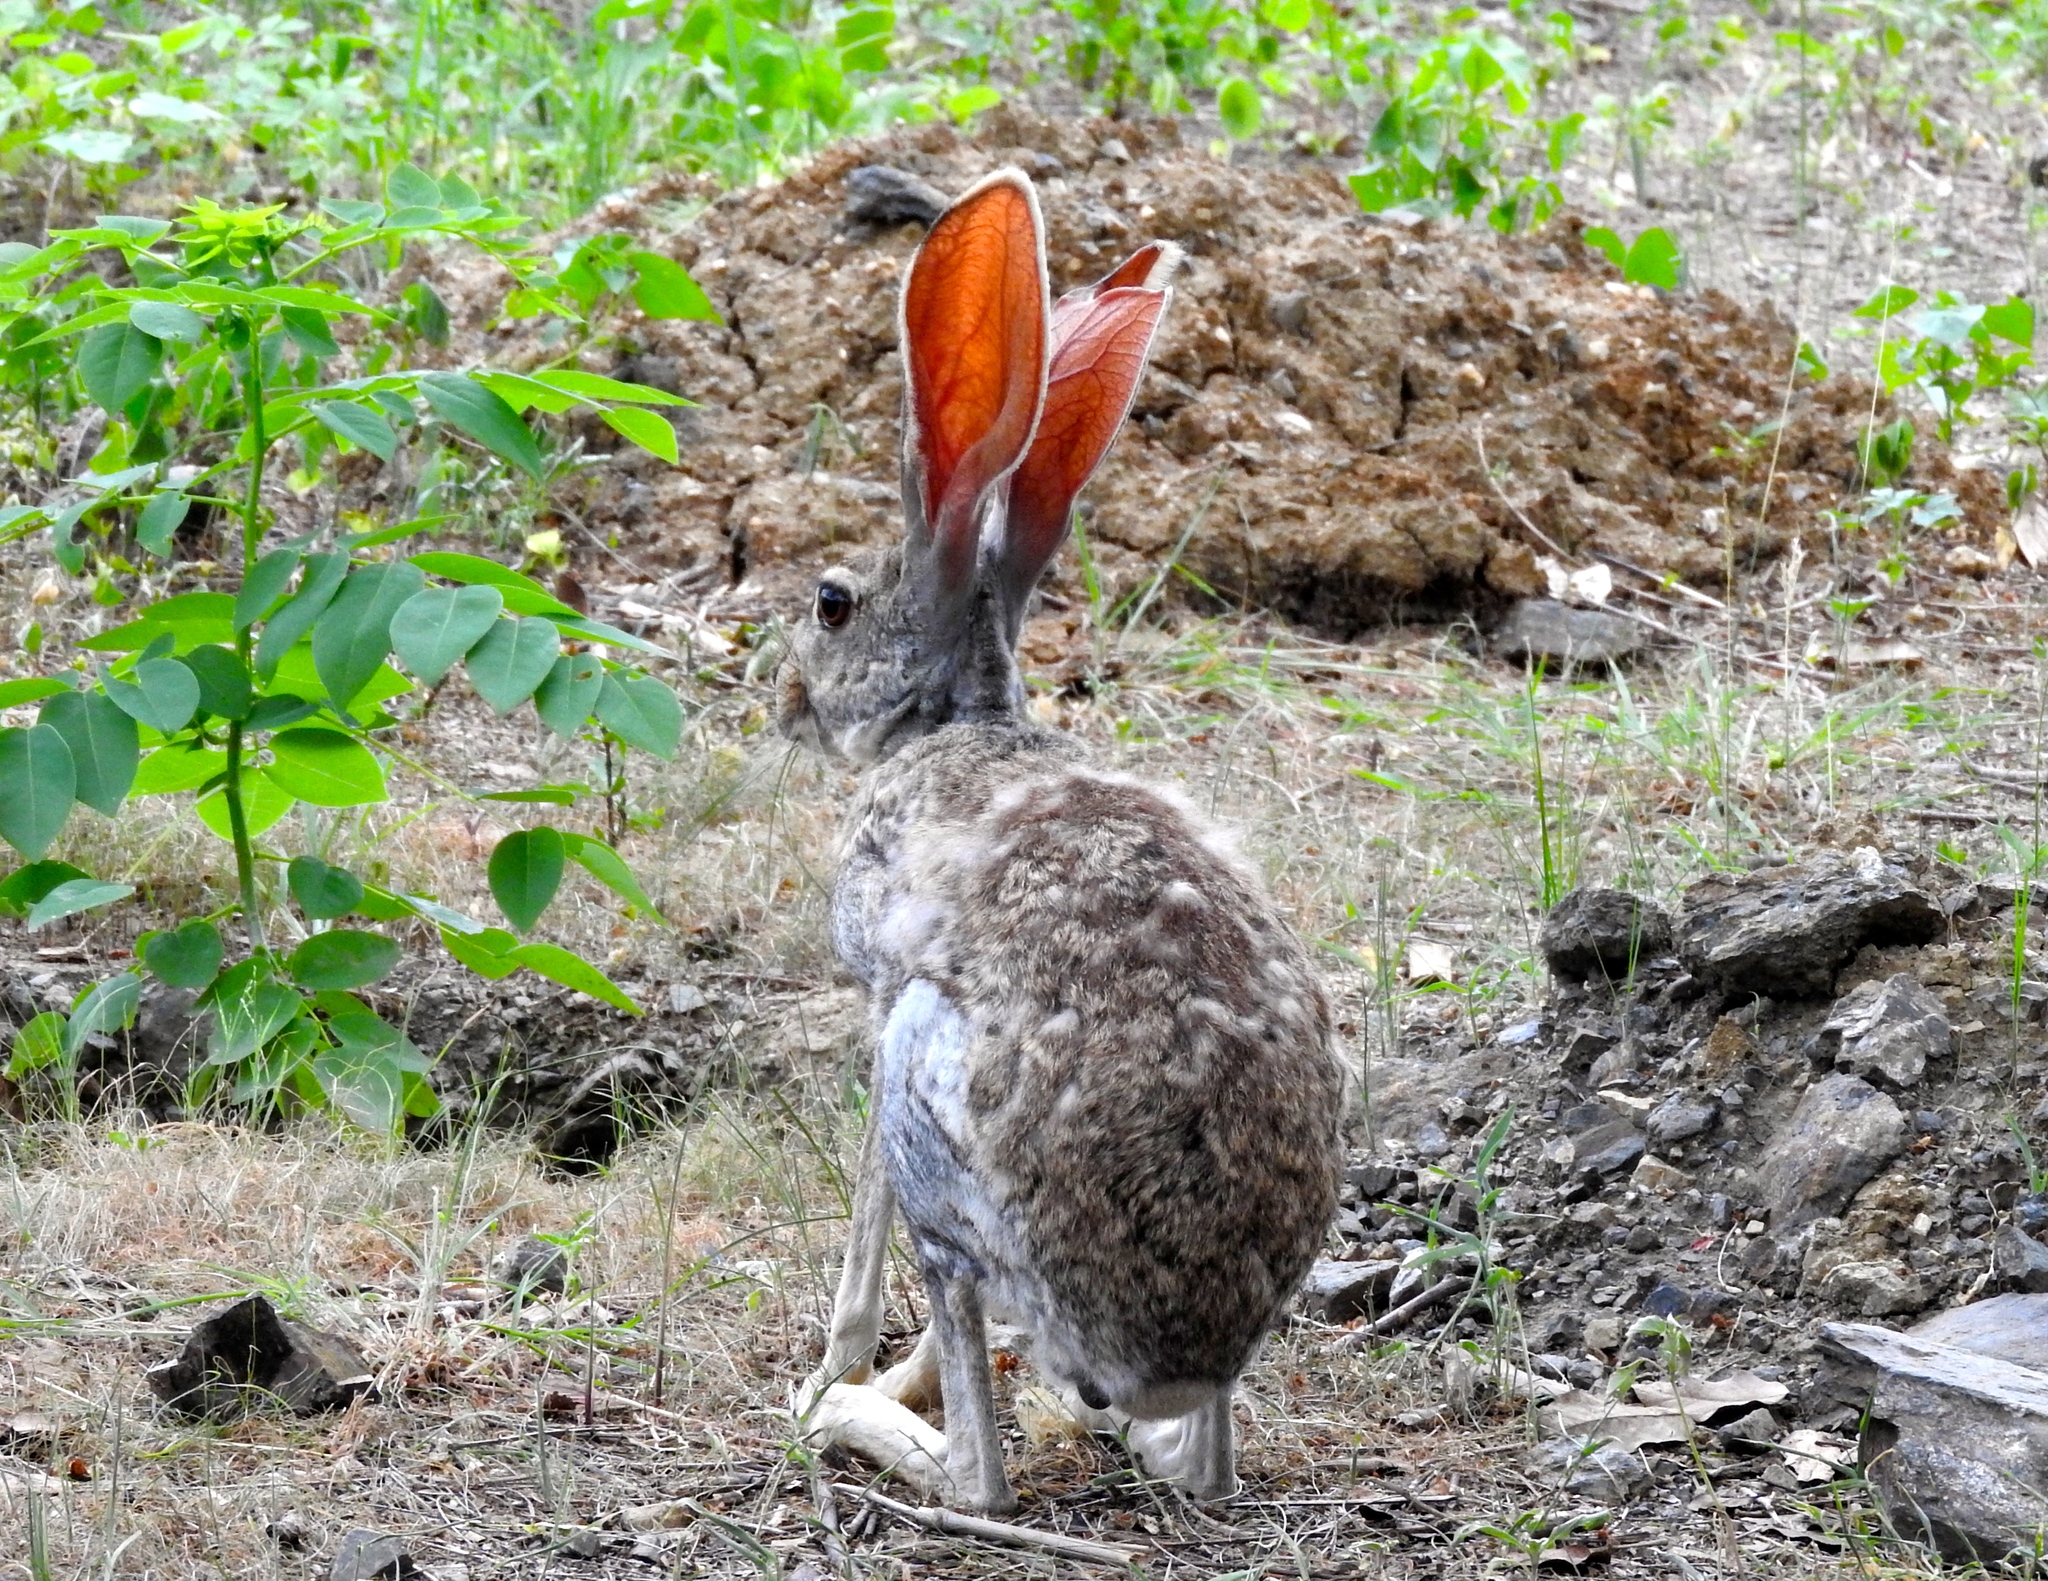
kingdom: Animalia
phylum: Chordata
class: Mammalia
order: Lagomorpha
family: Leporidae
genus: Lepus
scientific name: Lepus alleni
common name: Antelope jackrabbit
